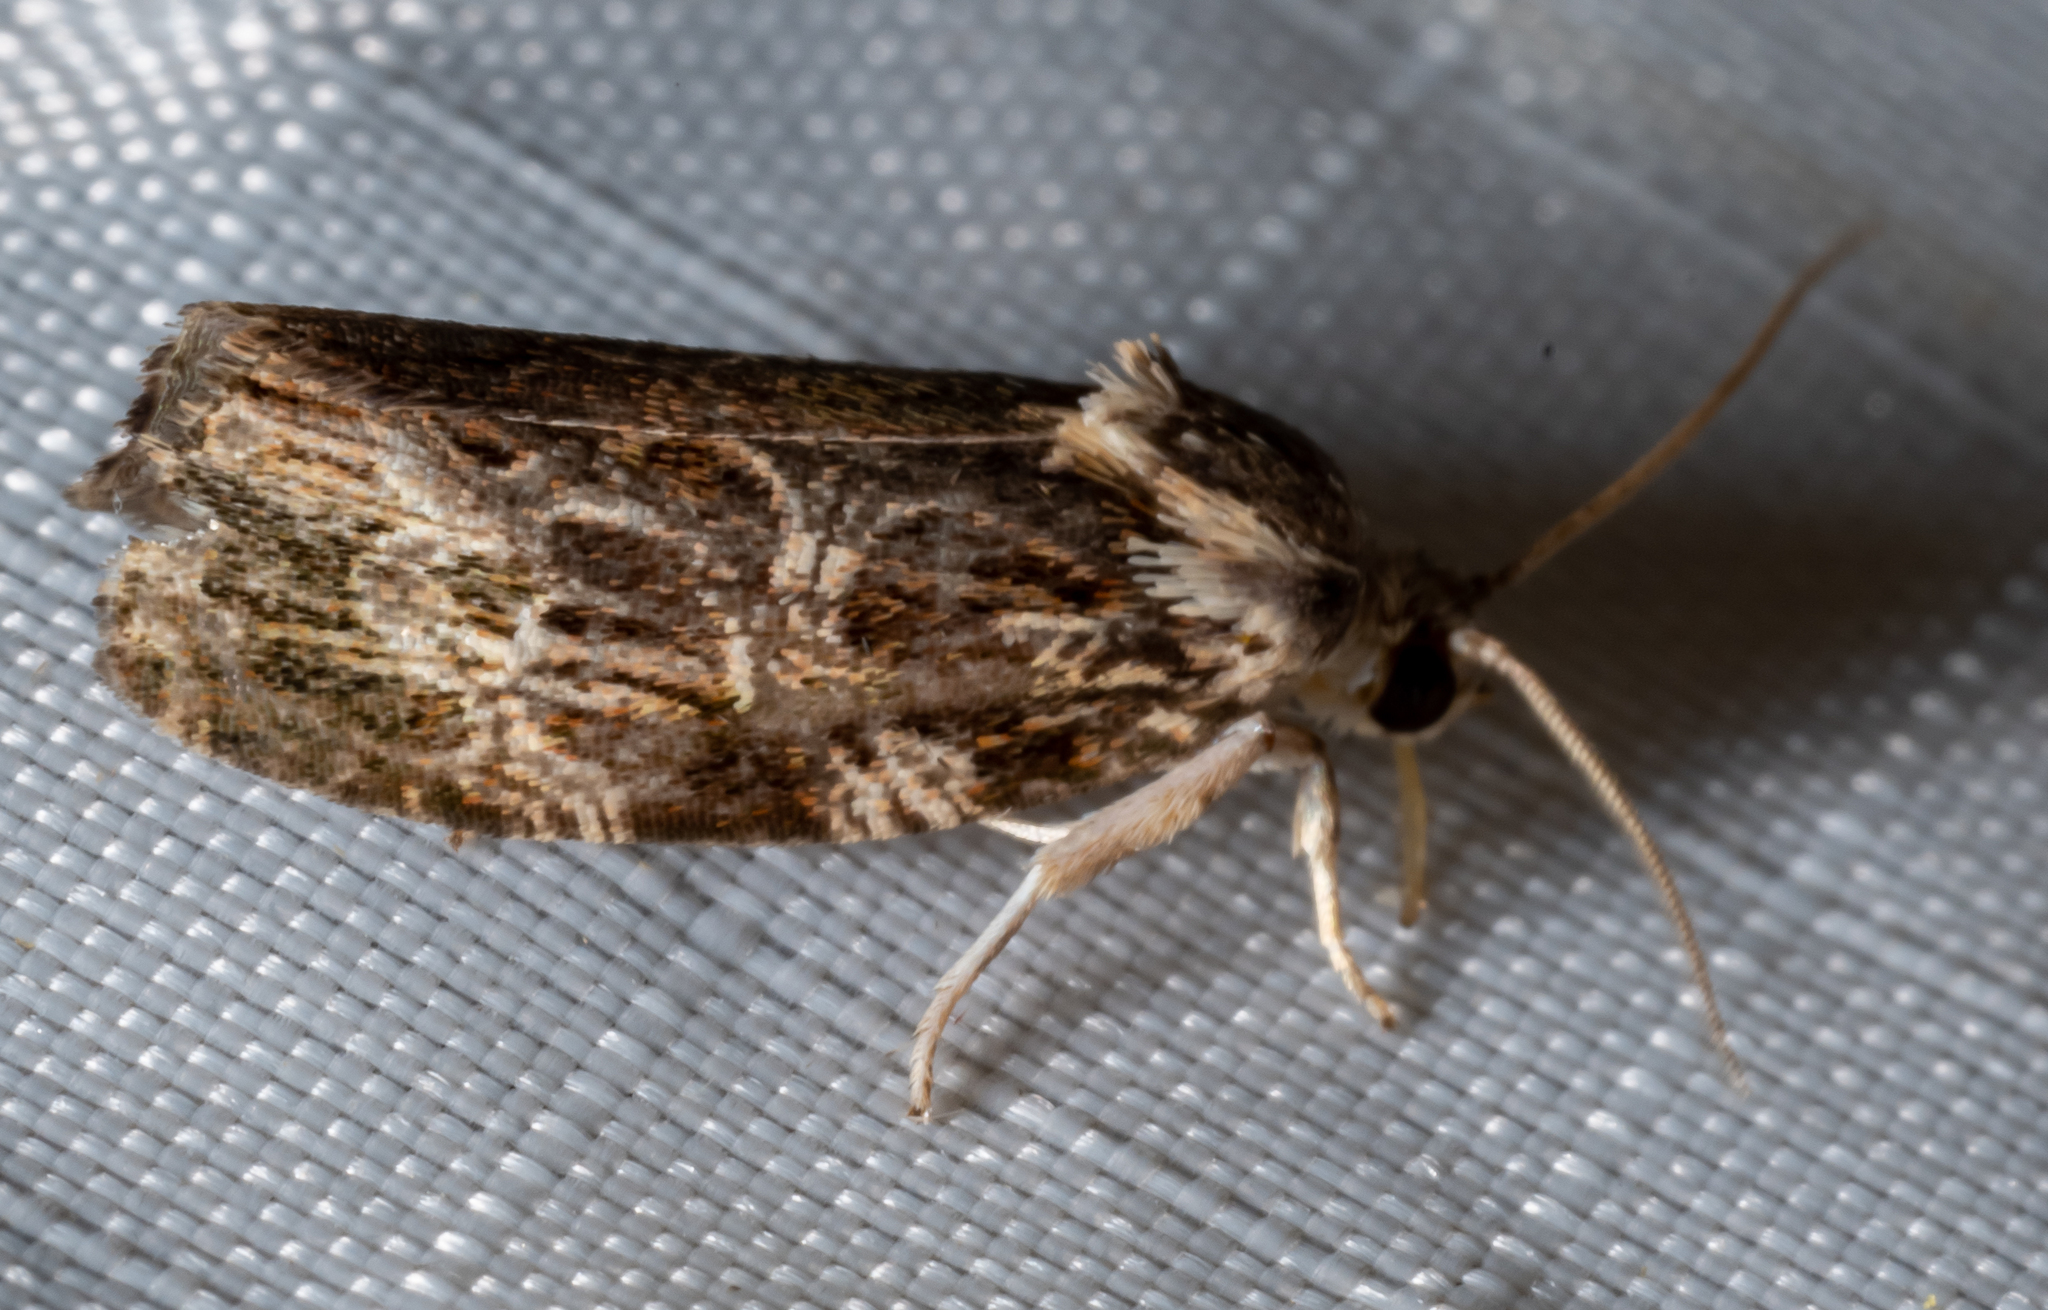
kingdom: Animalia
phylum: Arthropoda
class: Insecta
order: Lepidoptera
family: Tortricidae
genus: Phaecasiophora
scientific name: Phaecasiophora confixana
